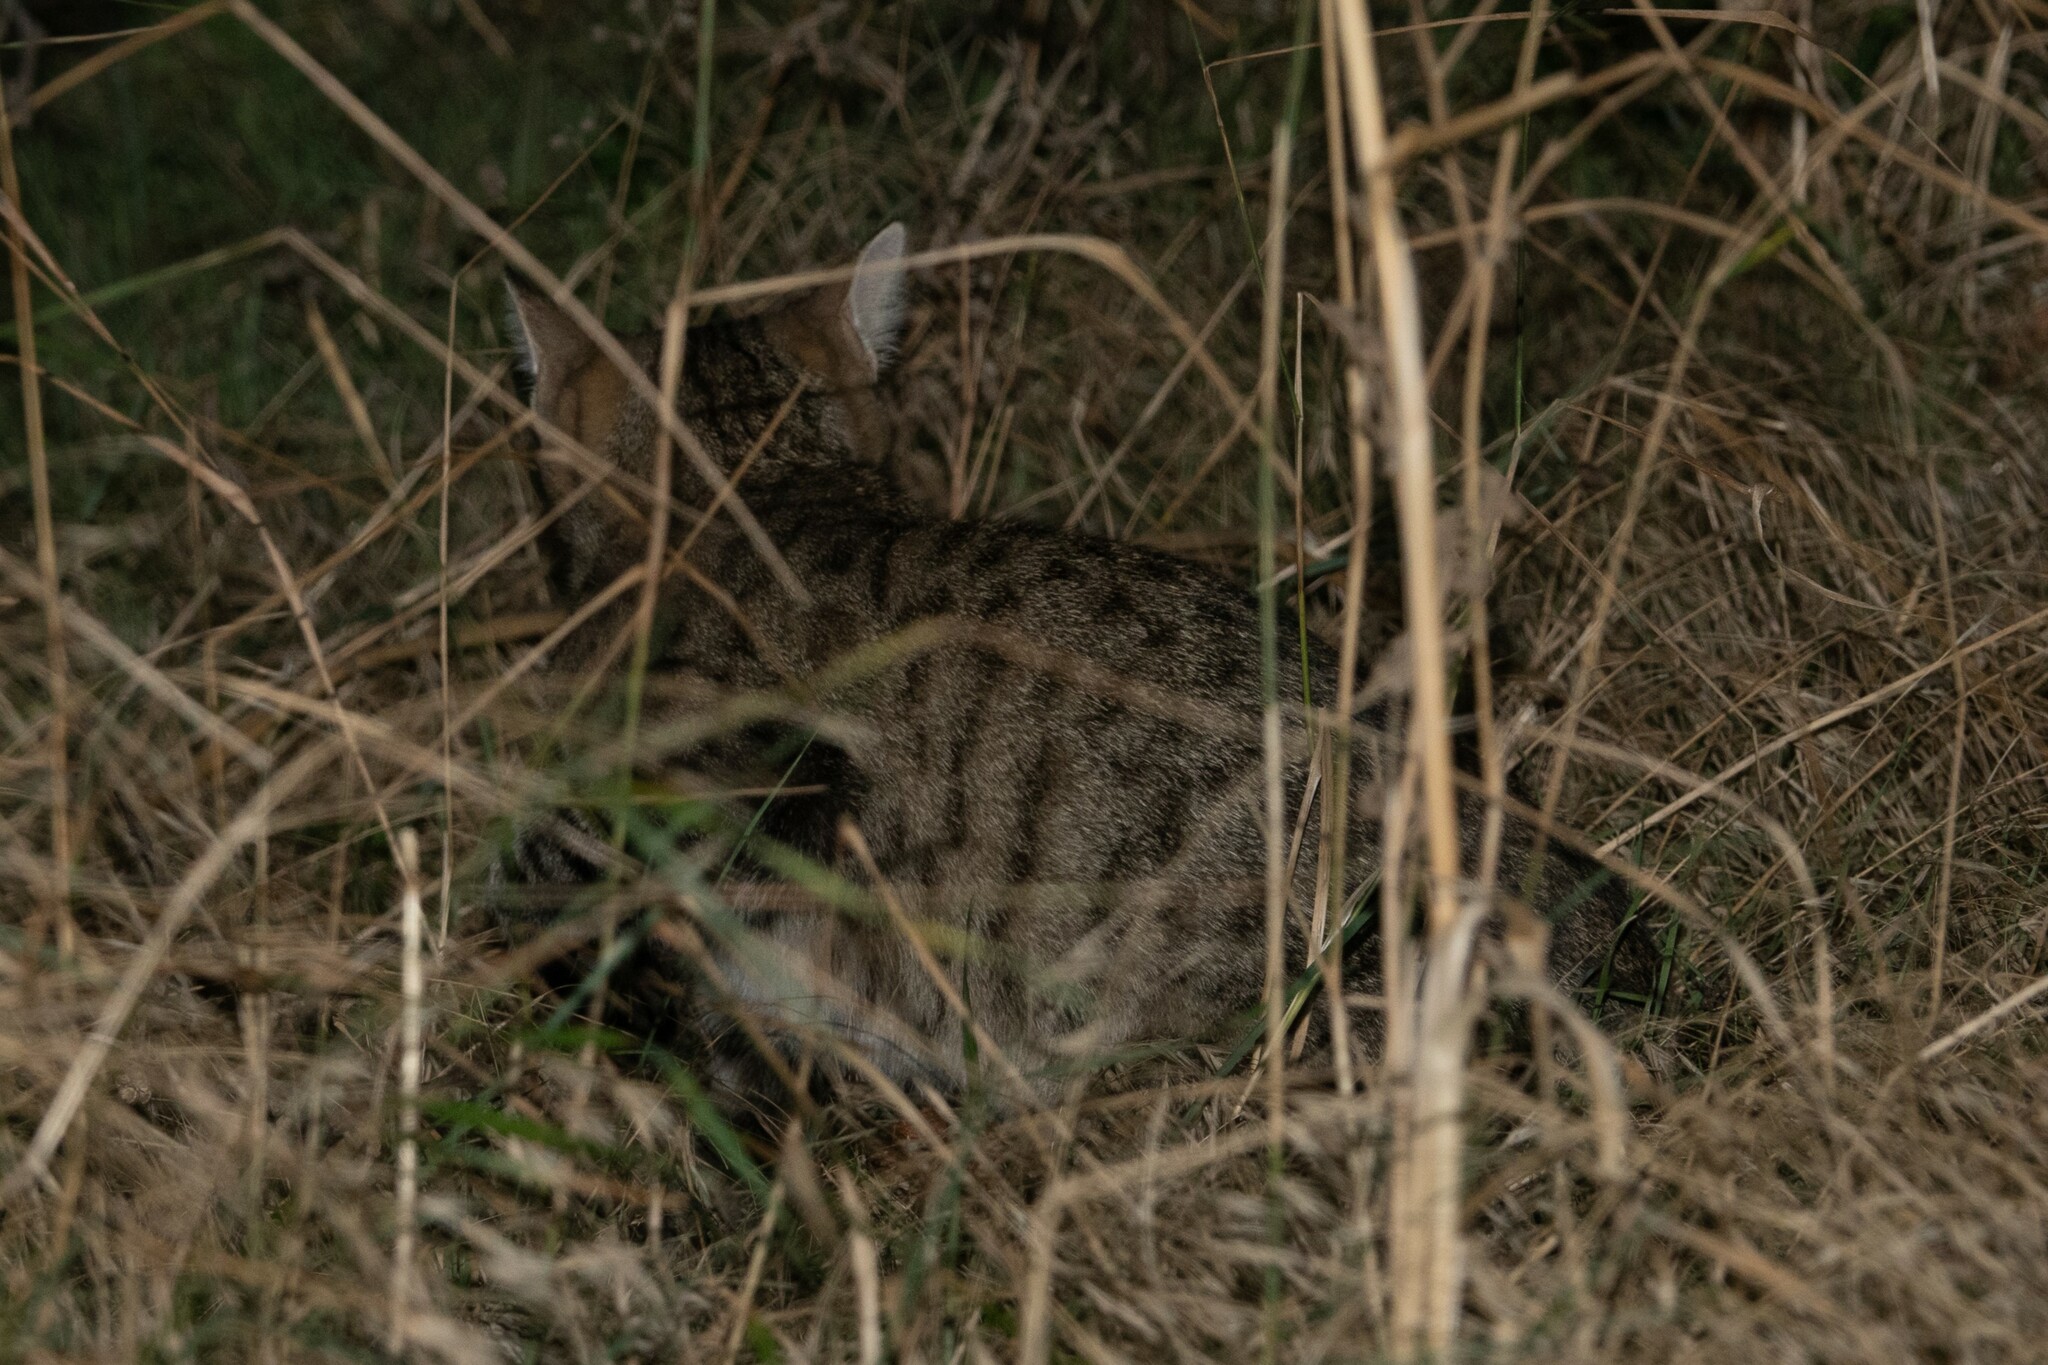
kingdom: Animalia
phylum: Chordata
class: Mammalia
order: Carnivora
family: Felidae
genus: Felis
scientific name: Felis catus
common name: Domestic cat
